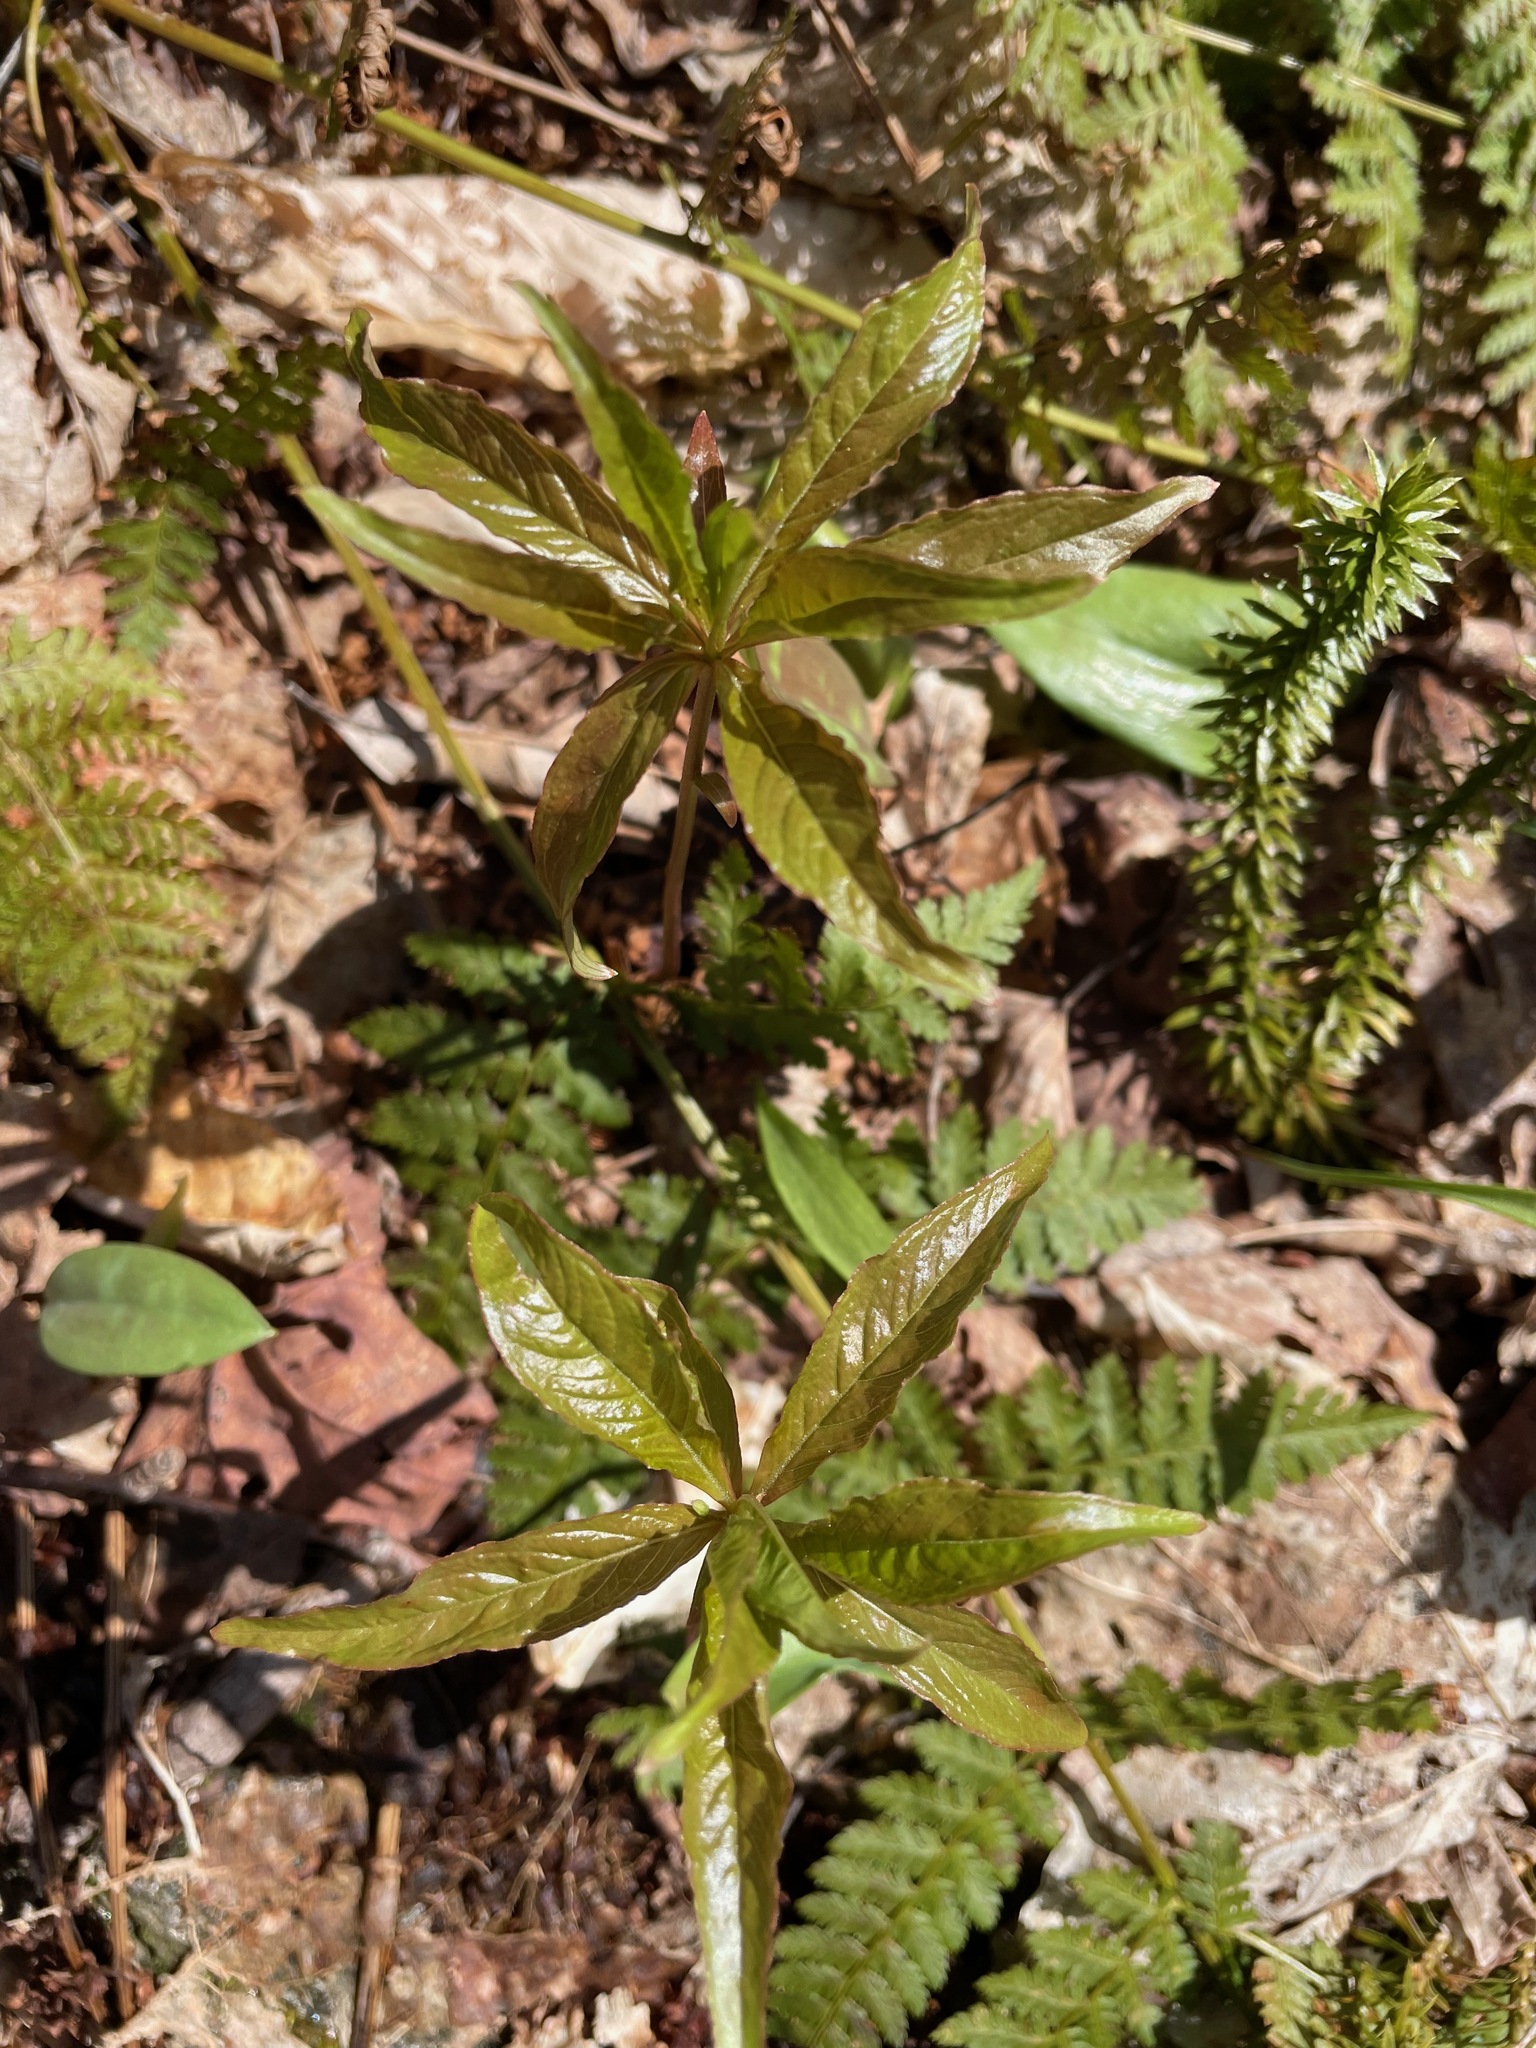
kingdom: Plantae
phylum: Tracheophyta
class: Magnoliopsida
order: Ericales
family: Primulaceae
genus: Lysimachia
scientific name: Lysimachia borealis
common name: American starflower
